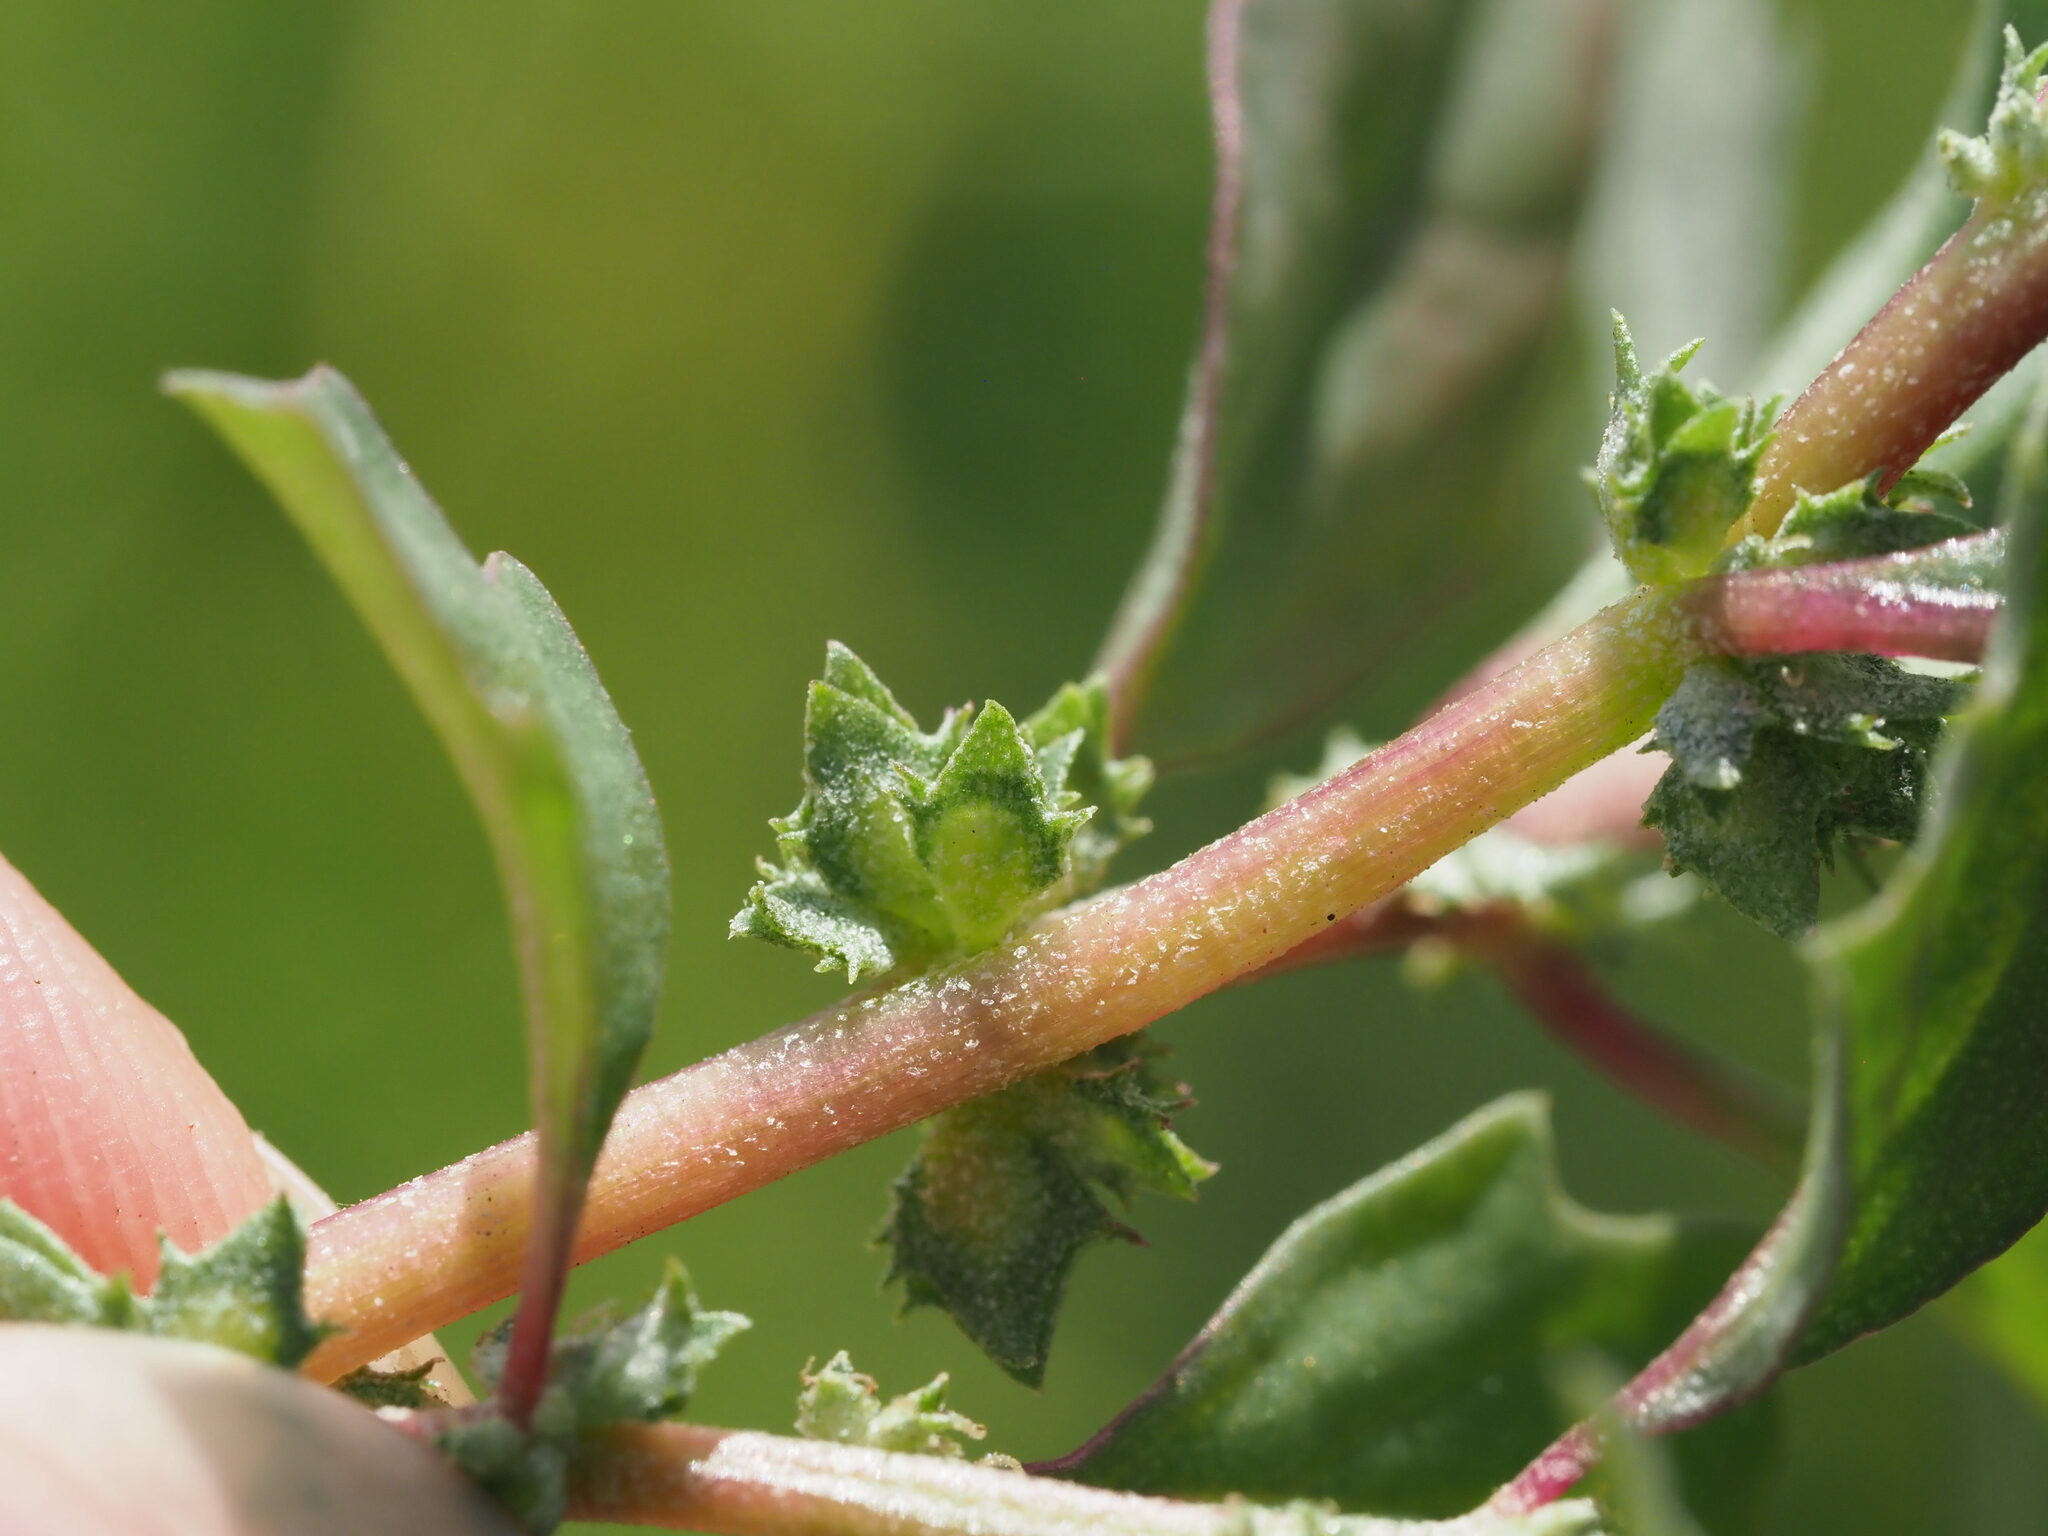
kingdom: Plantae
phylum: Tracheophyta
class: Magnoliopsida
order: Caryophyllales
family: Amaranthaceae
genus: Atriplex
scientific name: Atriplex suberecta
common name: Australian orache
